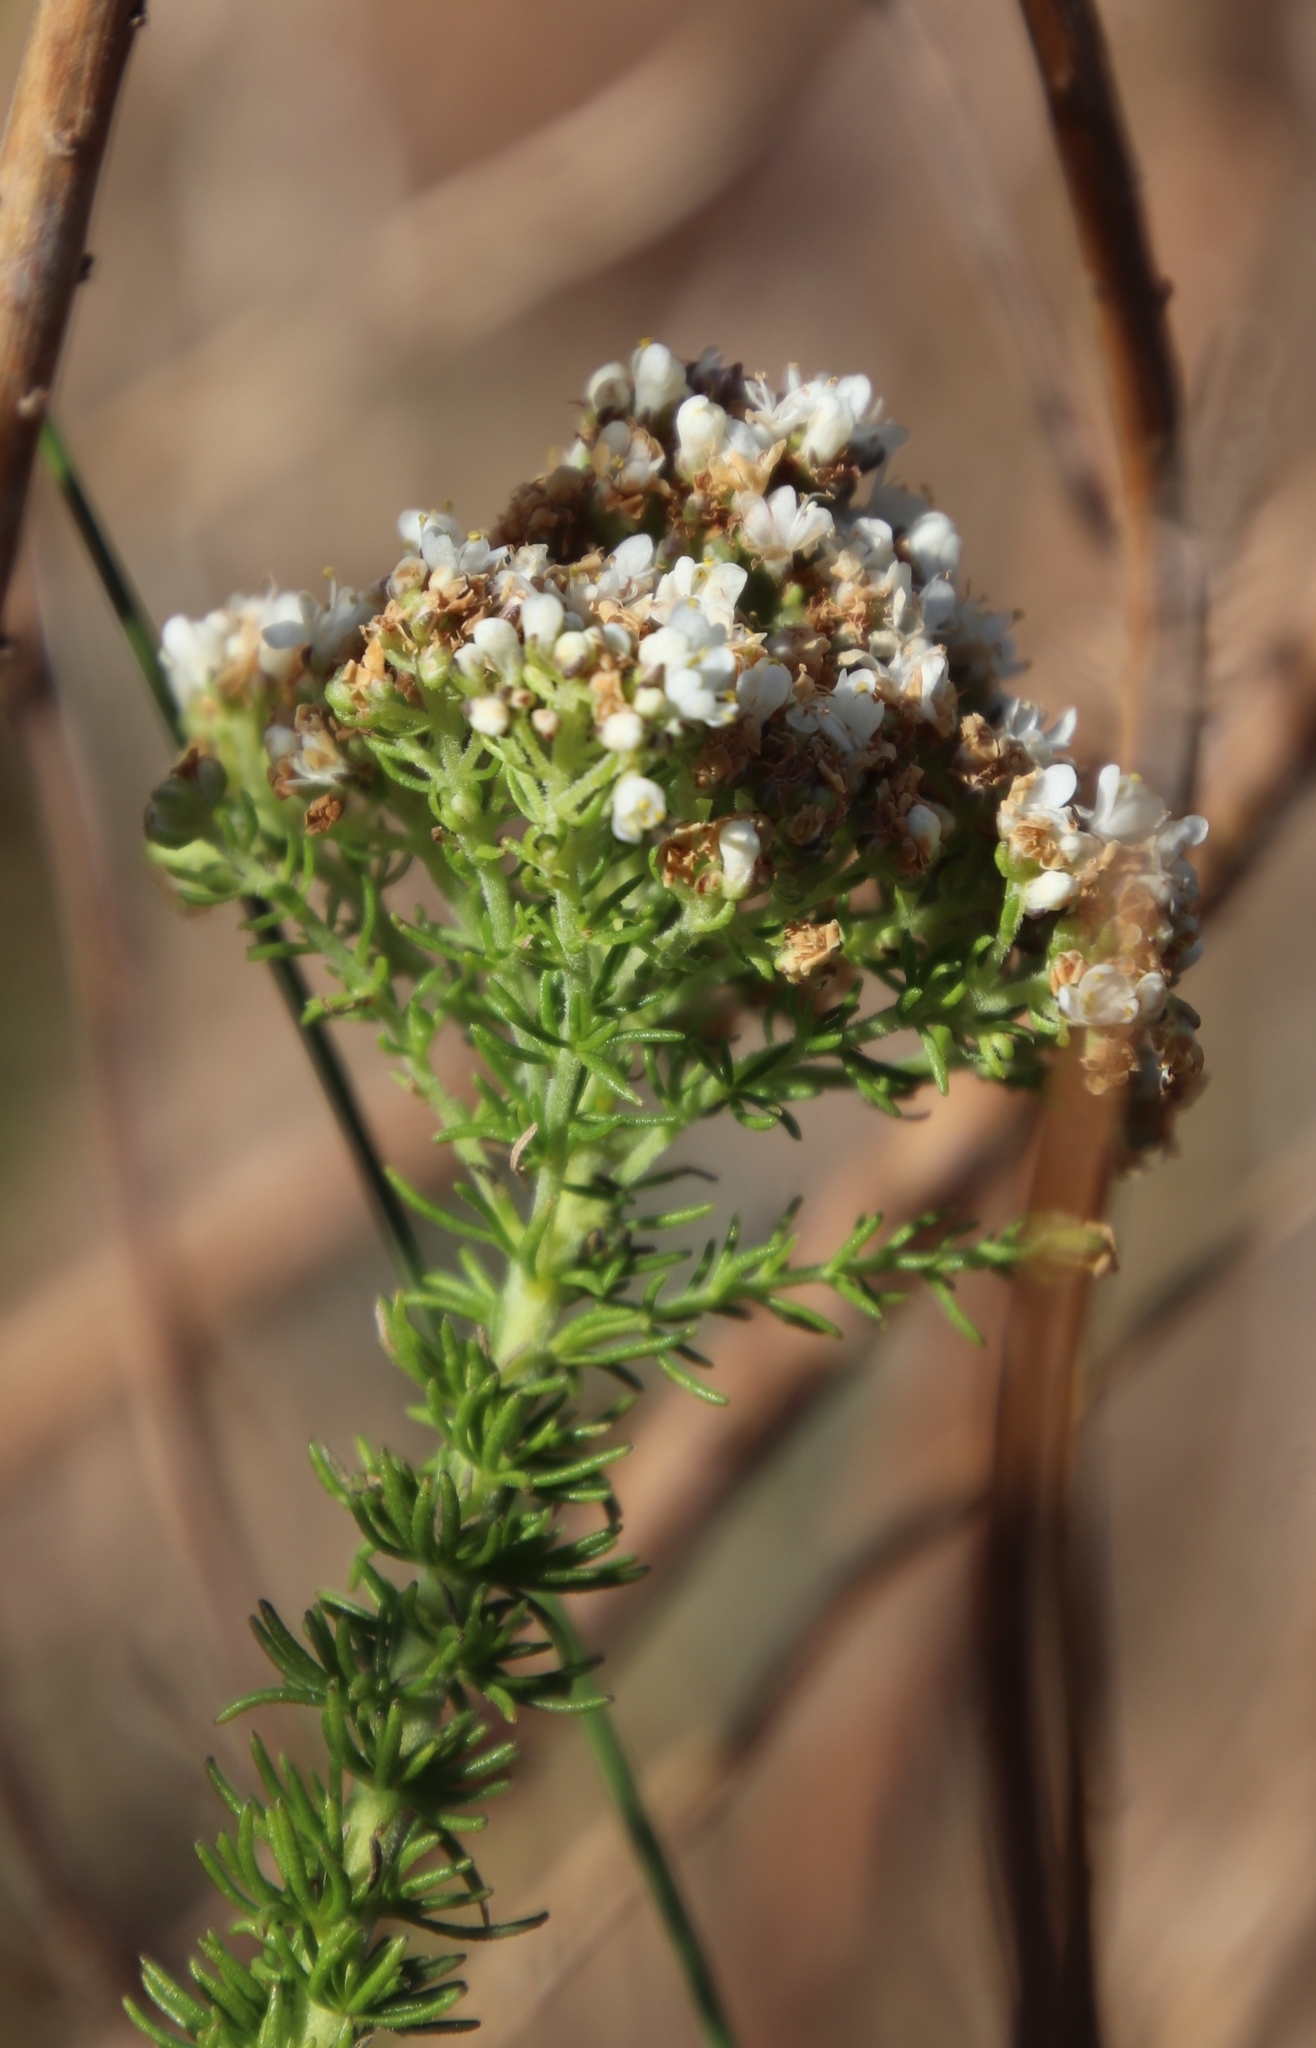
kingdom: Plantae
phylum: Tracheophyta
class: Magnoliopsida
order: Lamiales
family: Scrophulariaceae
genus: Selago
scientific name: Selago corymbosa
